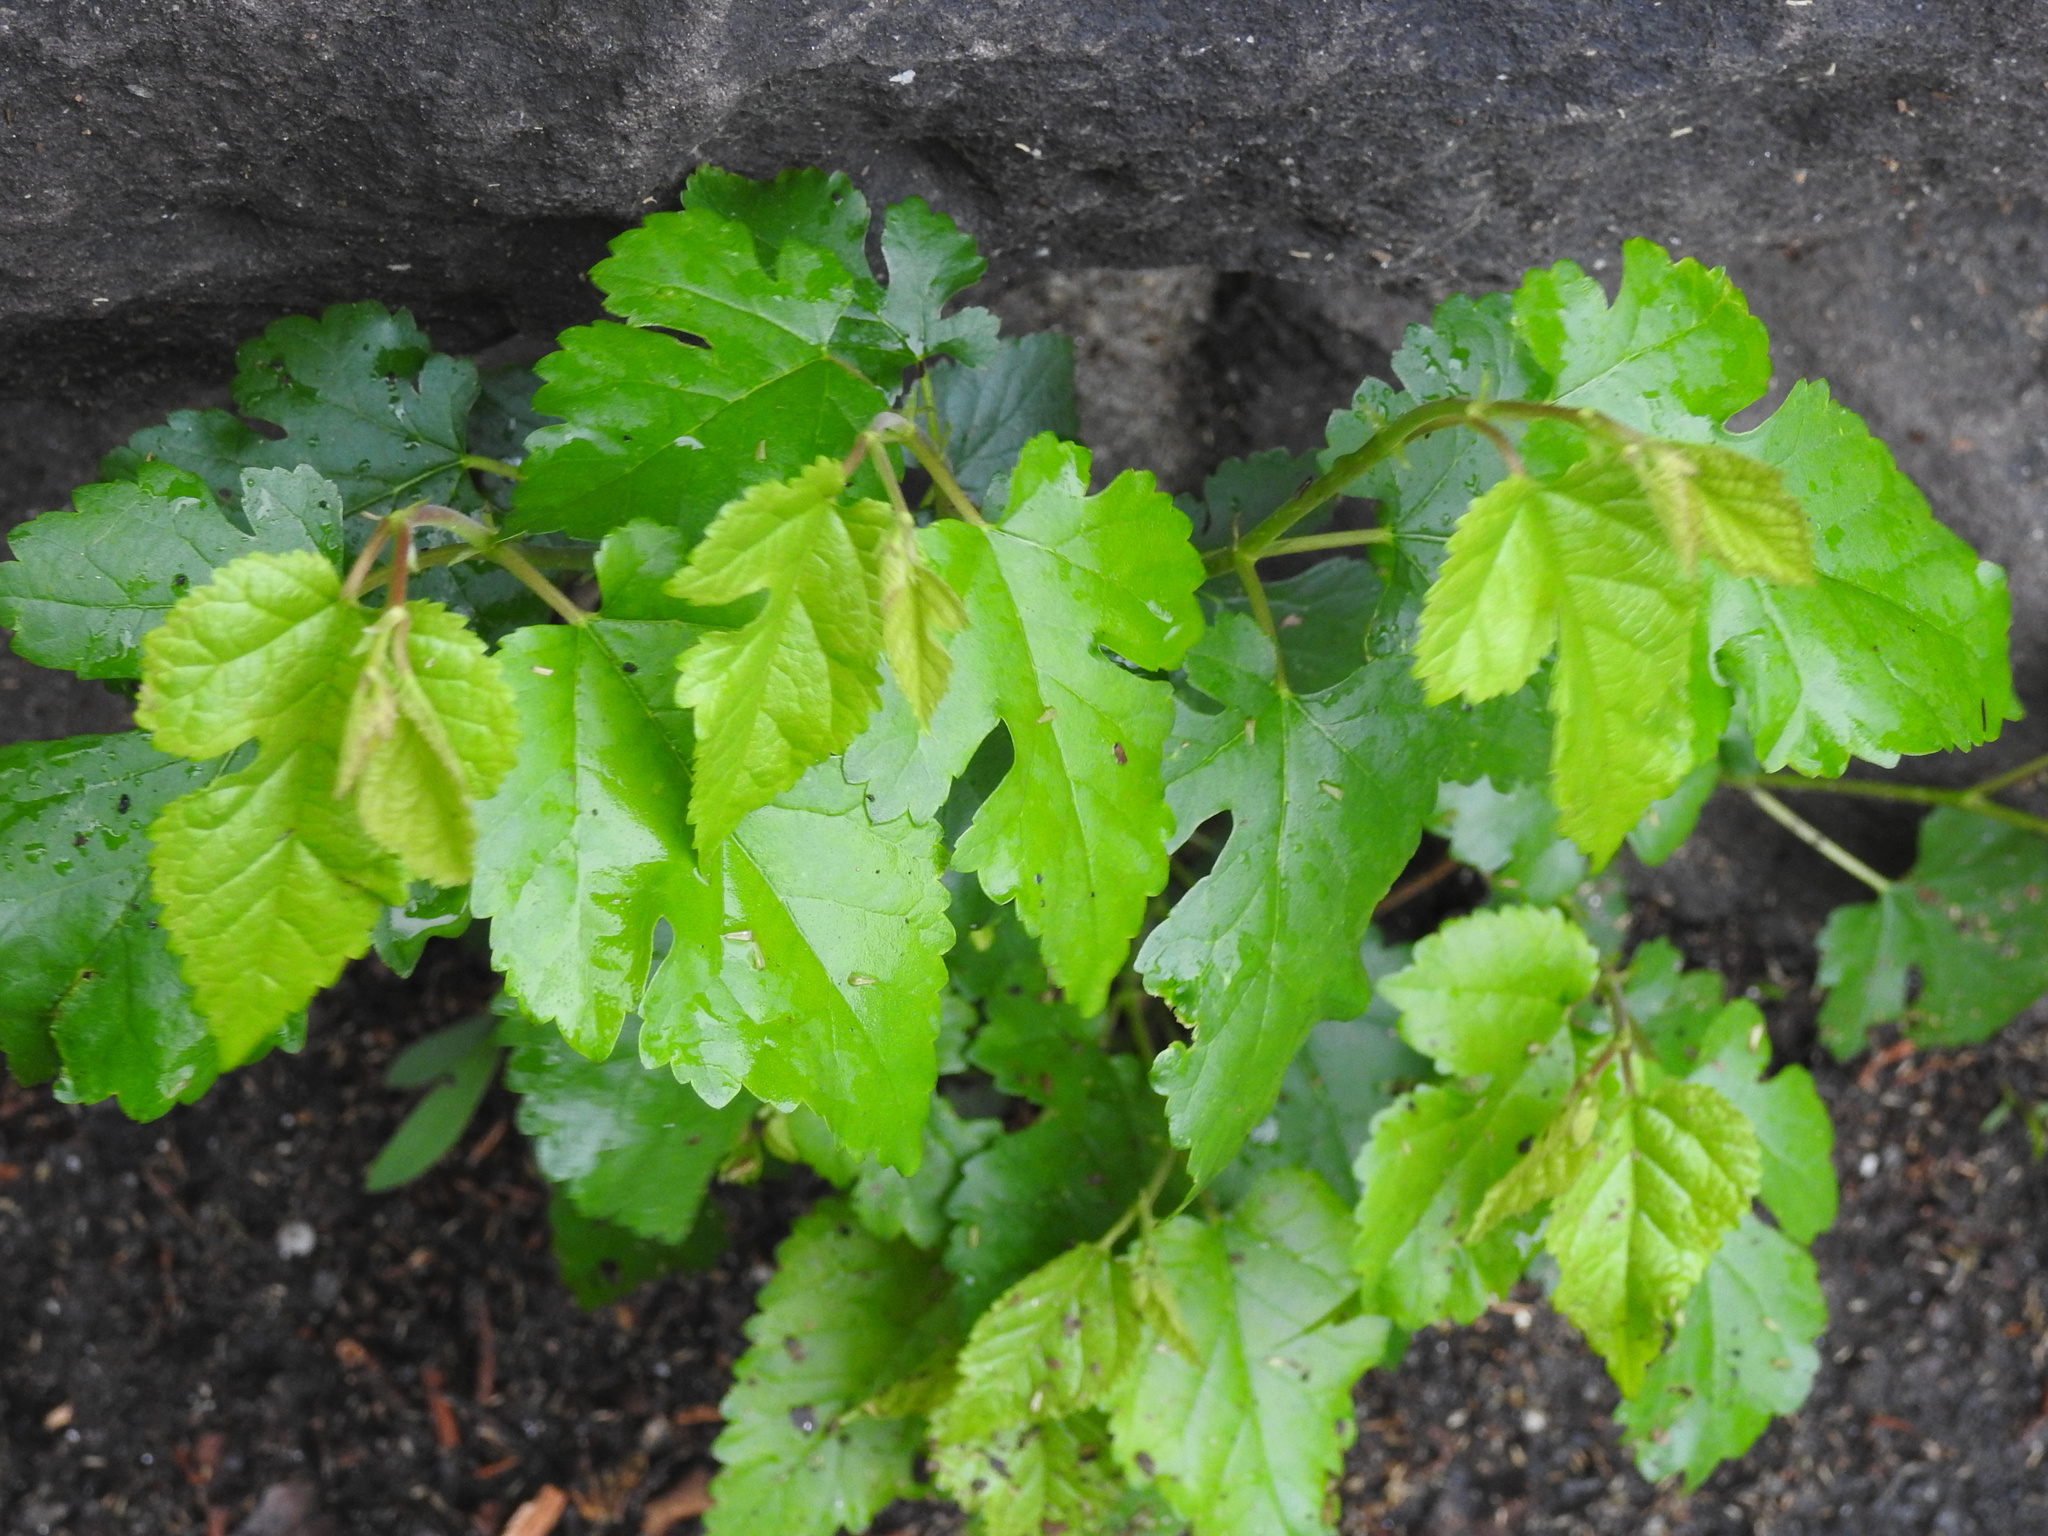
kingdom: Plantae
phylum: Tracheophyta
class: Magnoliopsida
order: Rosales
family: Moraceae
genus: Morus
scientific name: Morus alba
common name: White mulberry
